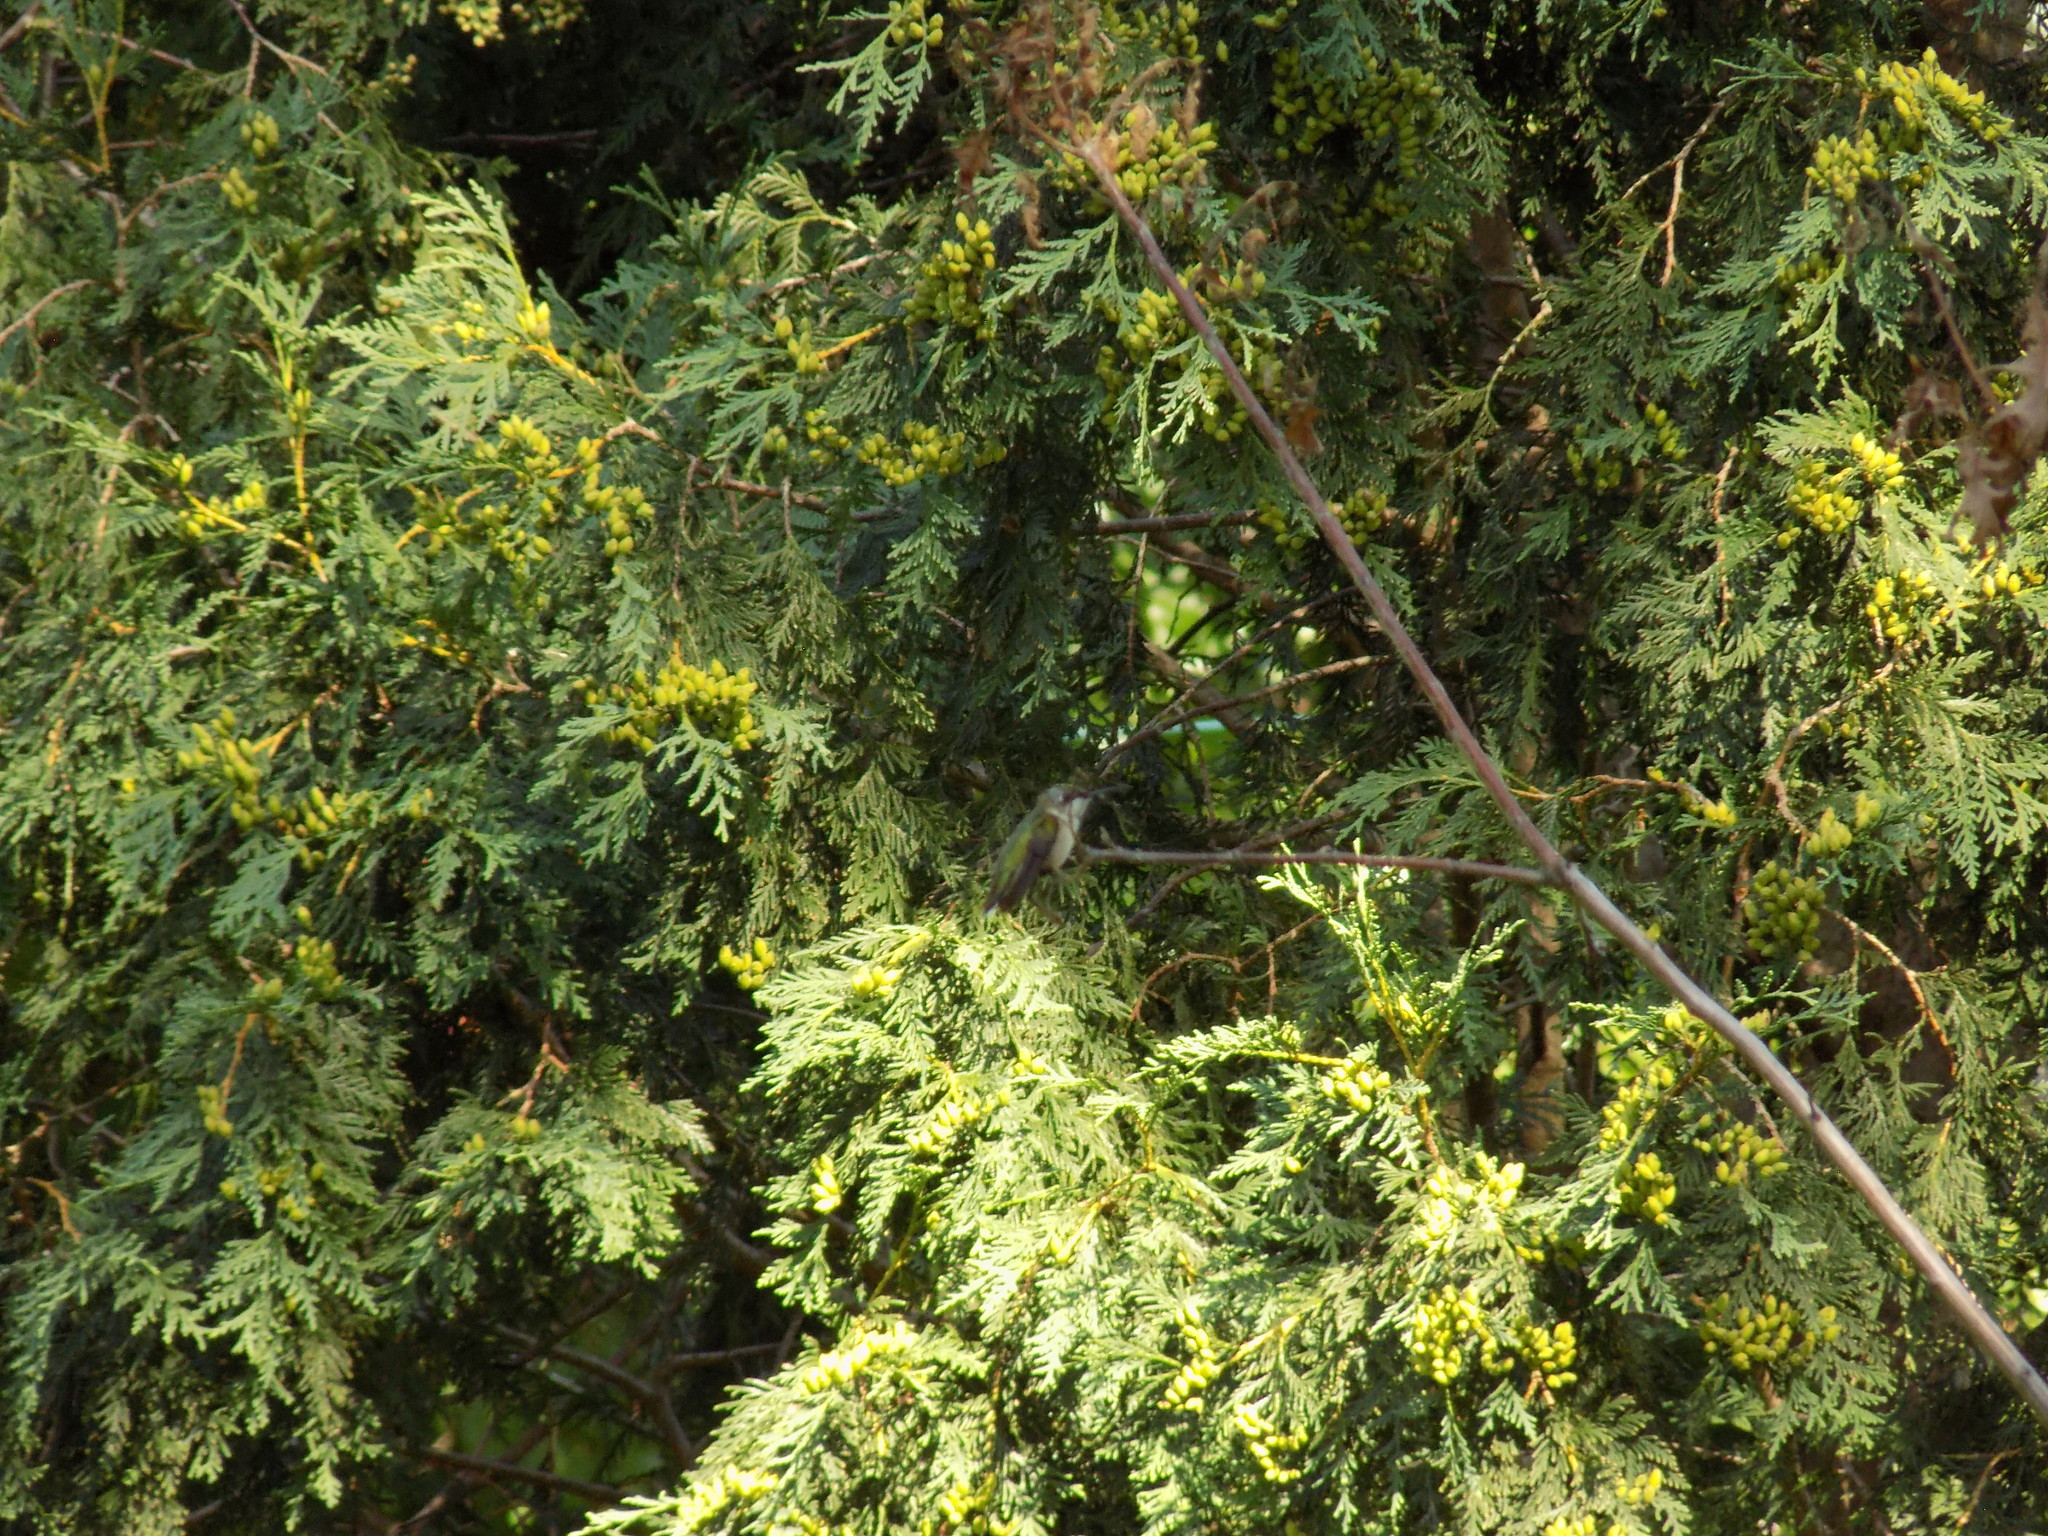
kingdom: Animalia
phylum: Chordata
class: Aves
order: Apodiformes
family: Trochilidae
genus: Archilochus
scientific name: Archilochus colubris
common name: Ruby-throated hummingbird
